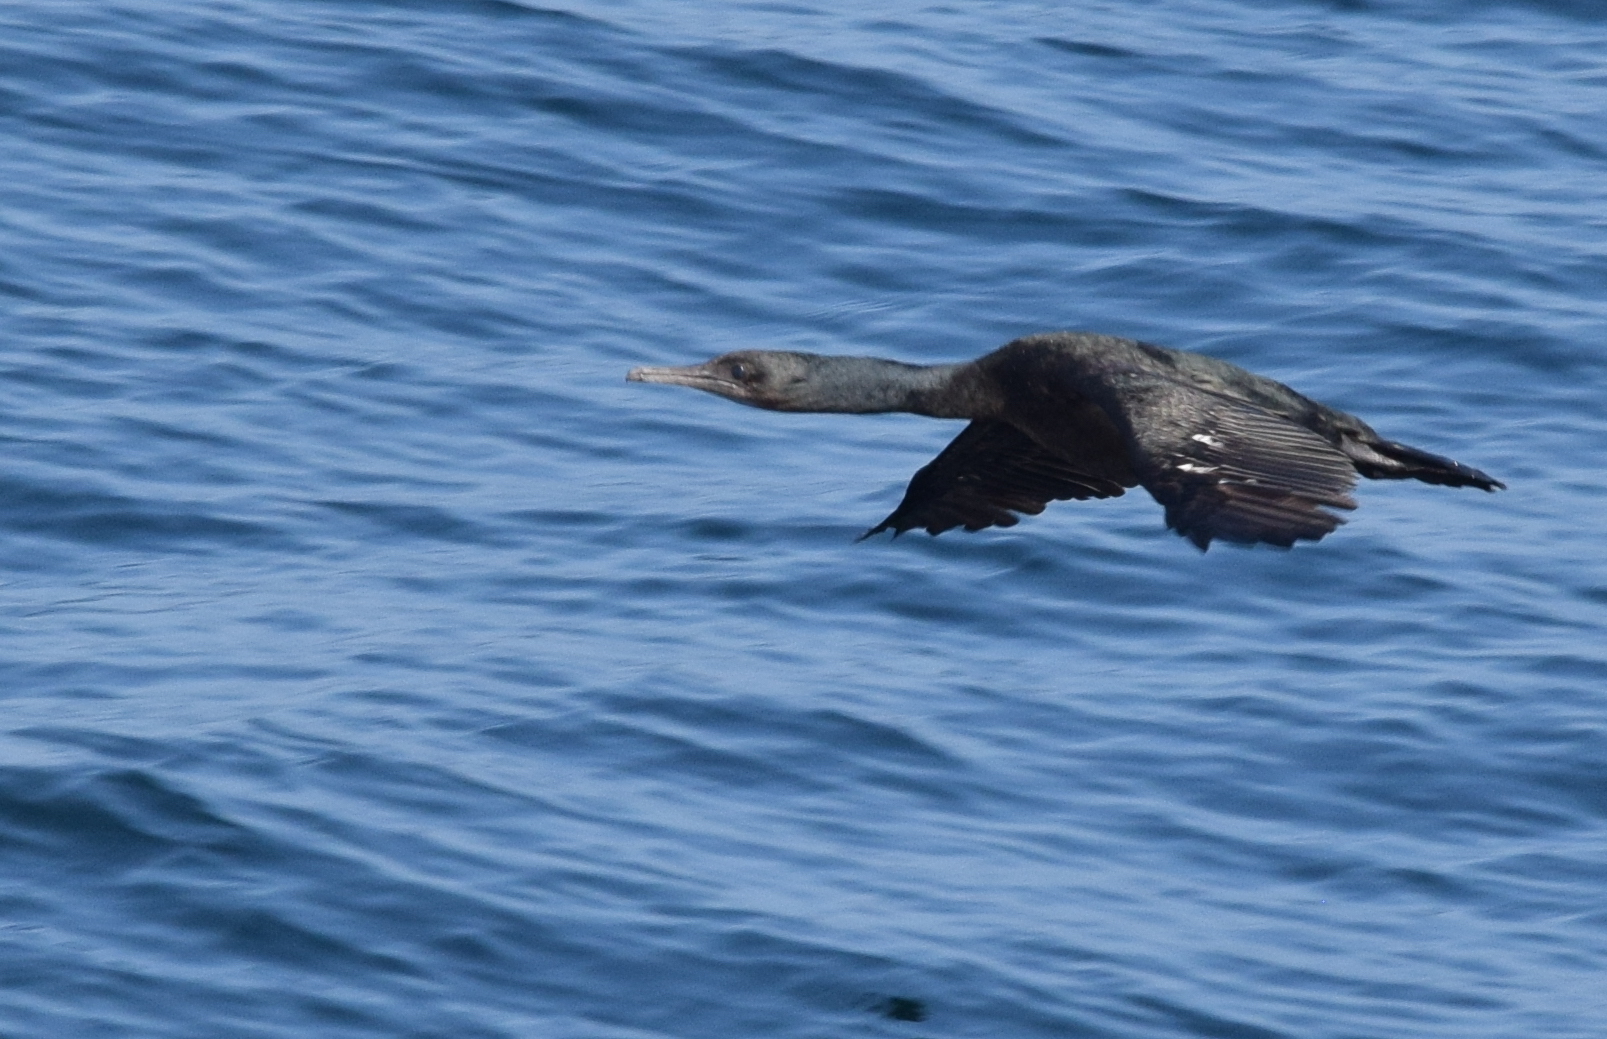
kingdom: Animalia
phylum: Chordata
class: Aves
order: Suliformes
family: Phalacrocoracidae
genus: Urile
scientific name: Urile penicillatus
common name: Brandt's cormorant
